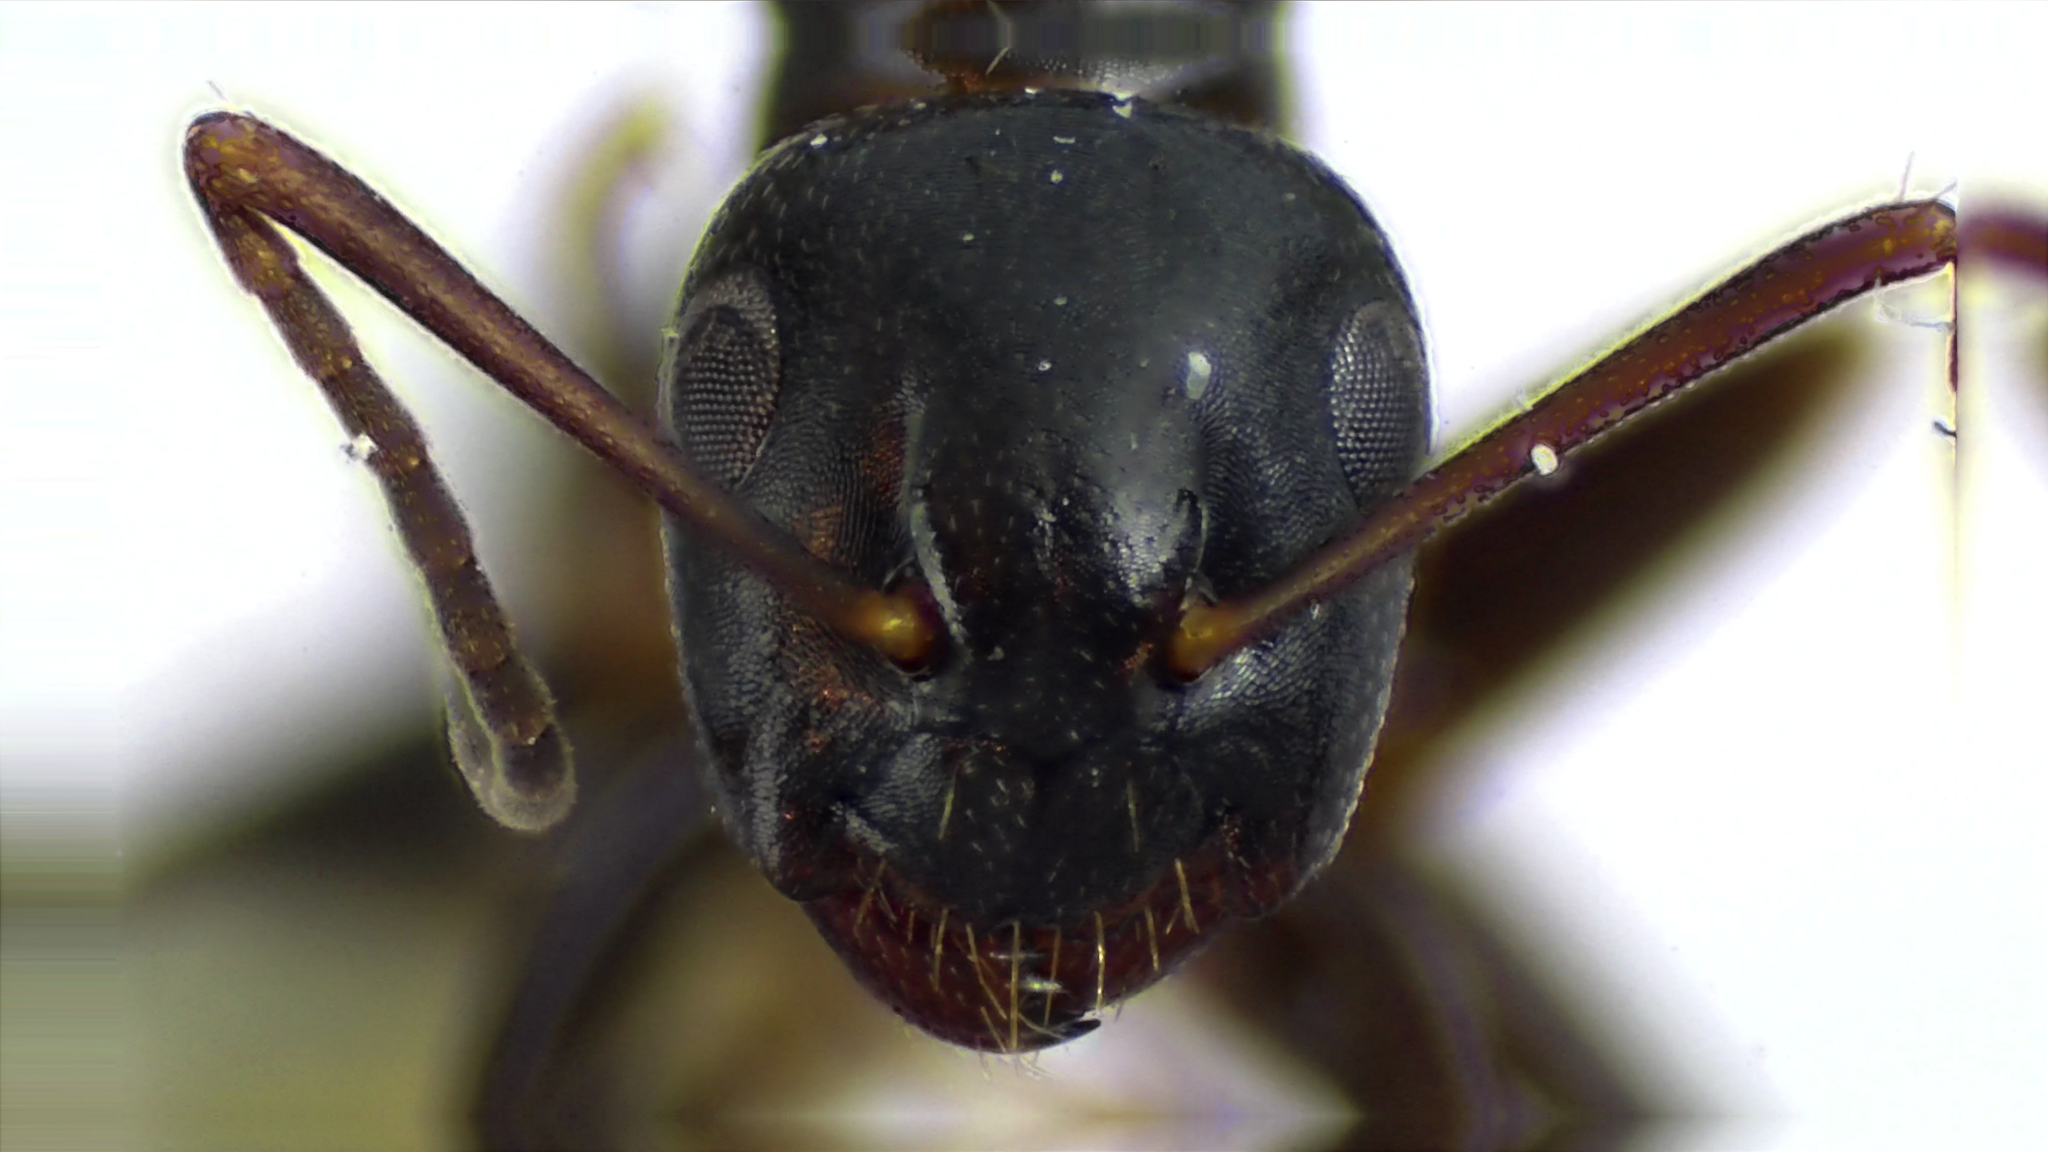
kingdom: Animalia
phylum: Arthropoda
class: Insecta
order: Hymenoptera
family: Formicidae
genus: Camponotus
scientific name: Camponotus nearcticus
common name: Smaller carpenter ant
